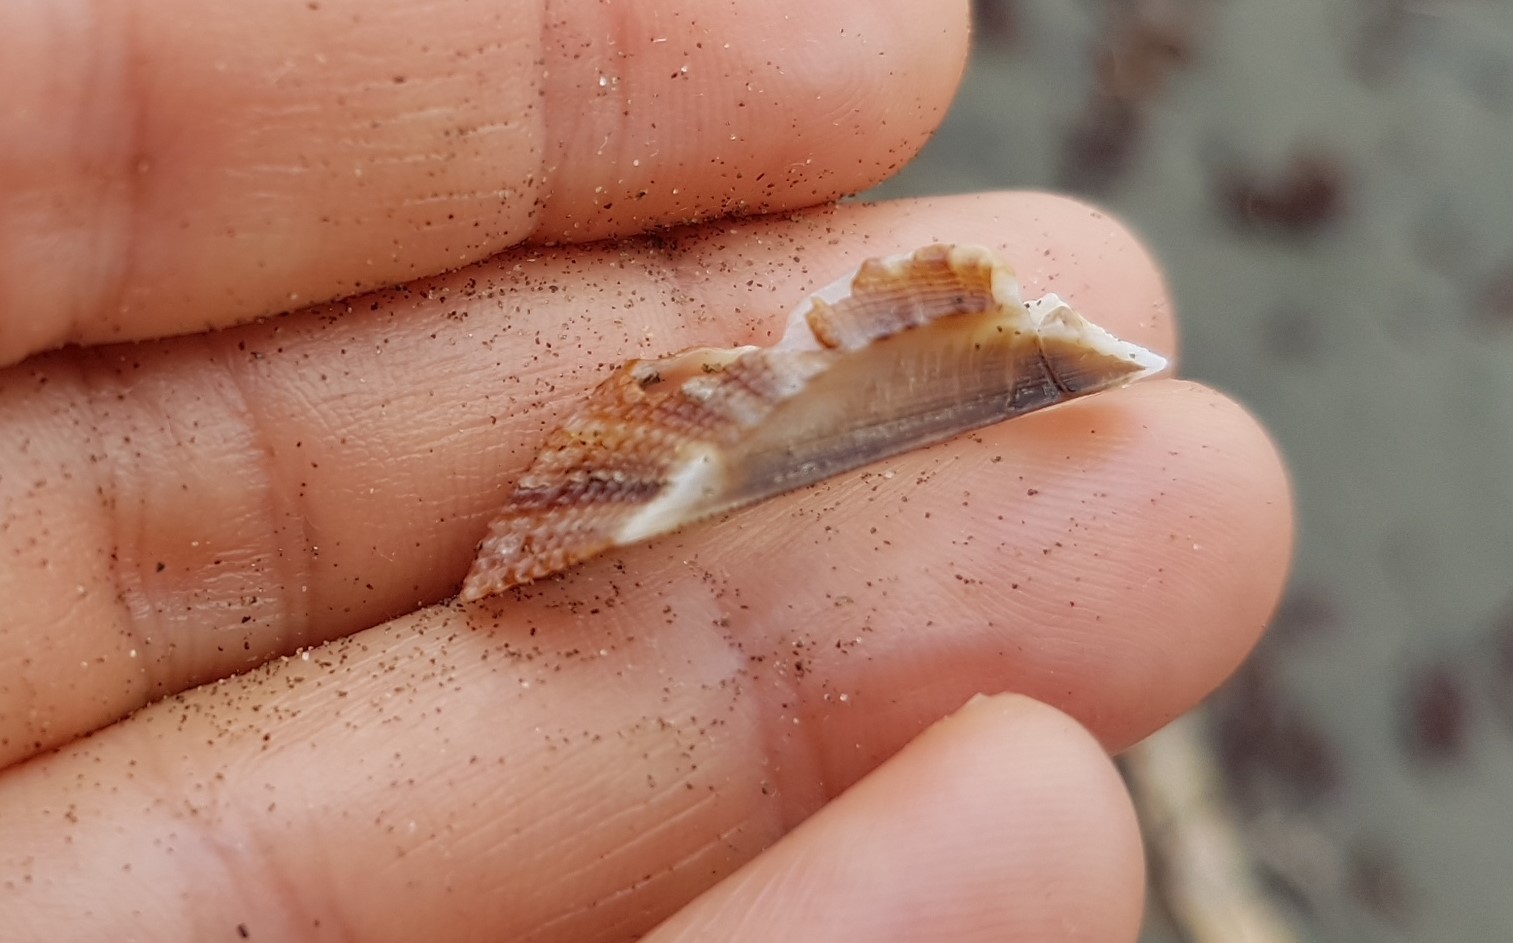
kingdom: Animalia
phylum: Mollusca
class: Bivalvia
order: Arcida
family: Arcidae
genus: Lamarcka
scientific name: Lamarcka imbricata
